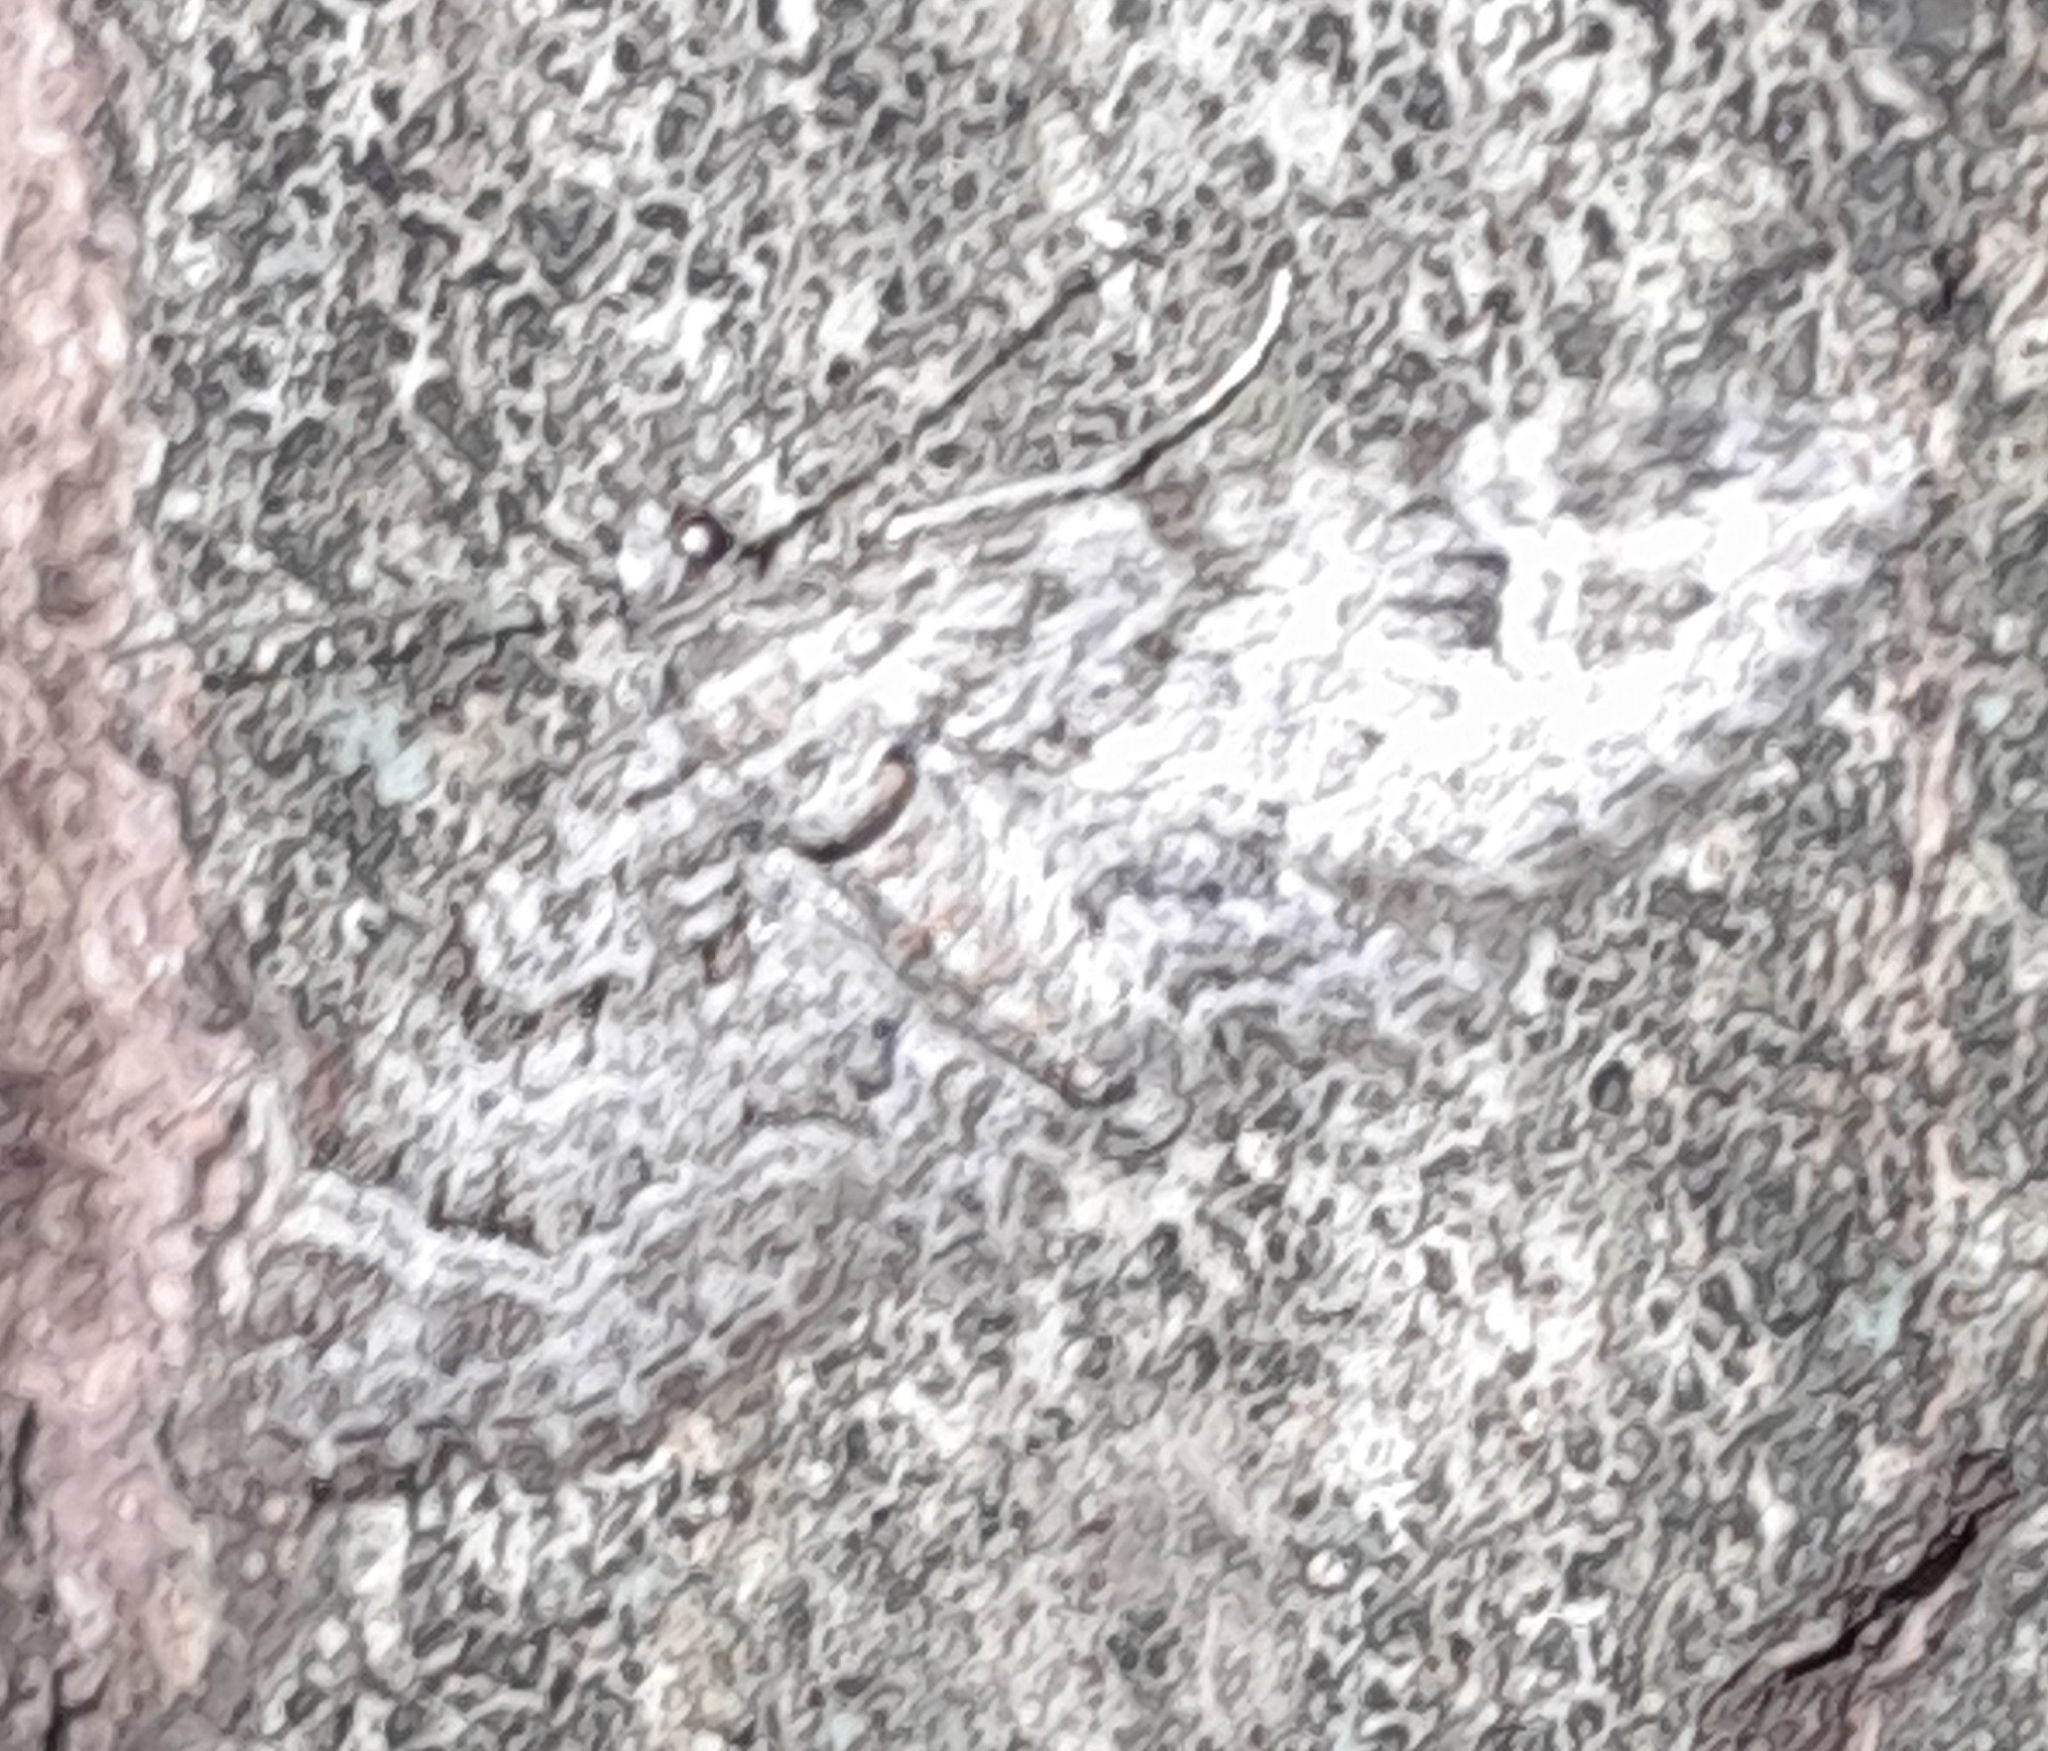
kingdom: Animalia
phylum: Arthropoda
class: Insecta
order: Lepidoptera
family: Geometridae
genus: Gymnoscelis
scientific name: Gymnoscelis rufifasciata
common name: Double-striped pug
